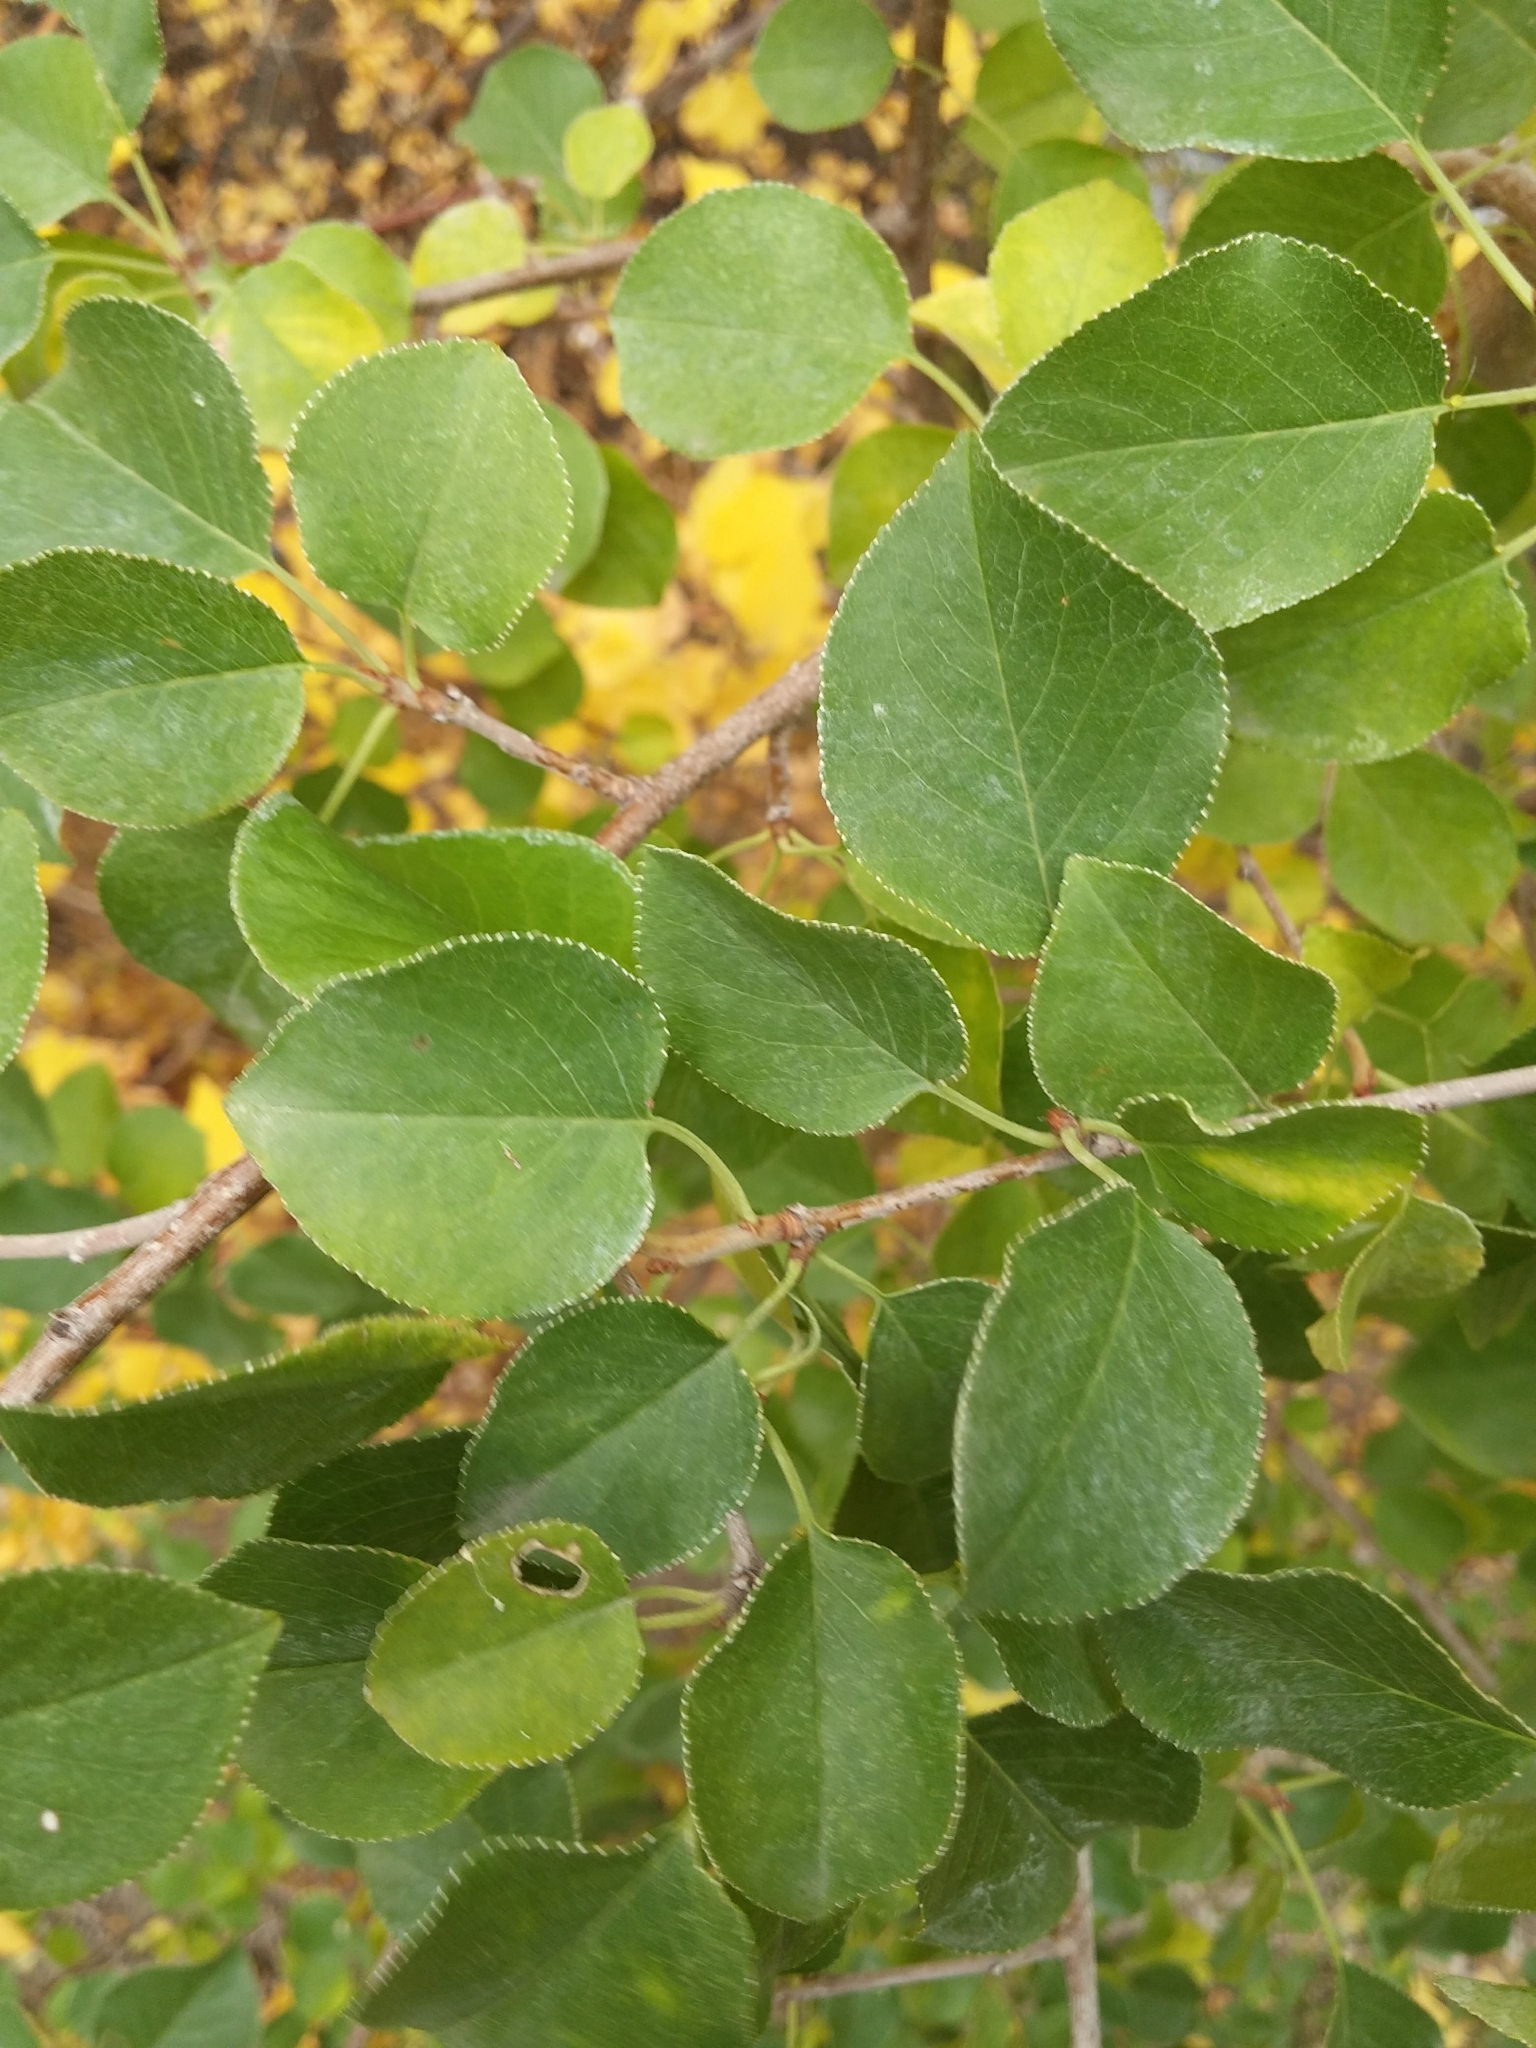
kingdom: Plantae
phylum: Tracheophyta
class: Magnoliopsida
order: Rosales
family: Rosaceae
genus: Prunus
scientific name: Prunus mahaleb
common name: Mahaleb cherry
